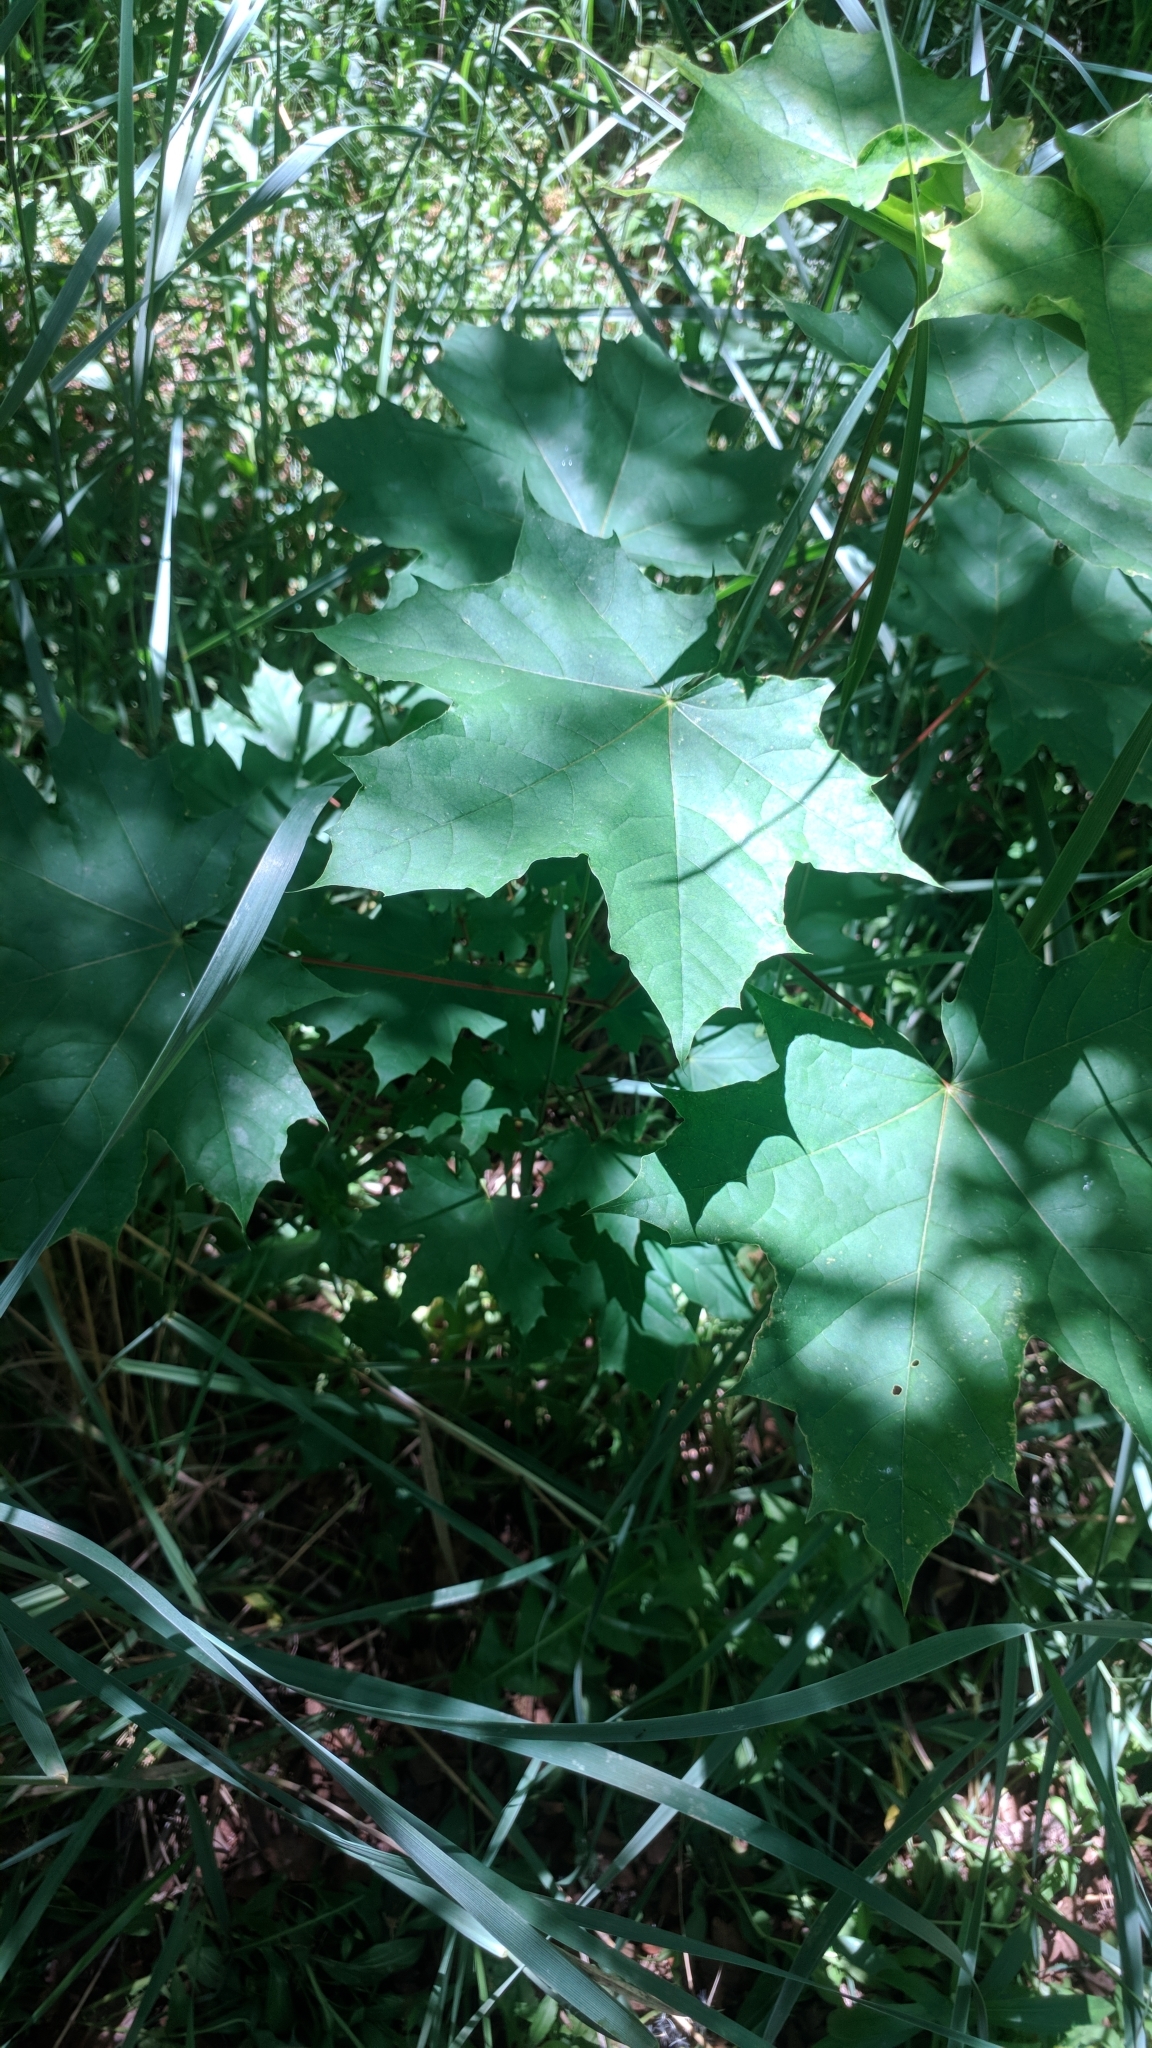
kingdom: Plantae
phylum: Tracheophyta
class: Magnoliopsida
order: Sapindales
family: Sapindaceae
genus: Acer
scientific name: Acer platanoides
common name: Norway maple
